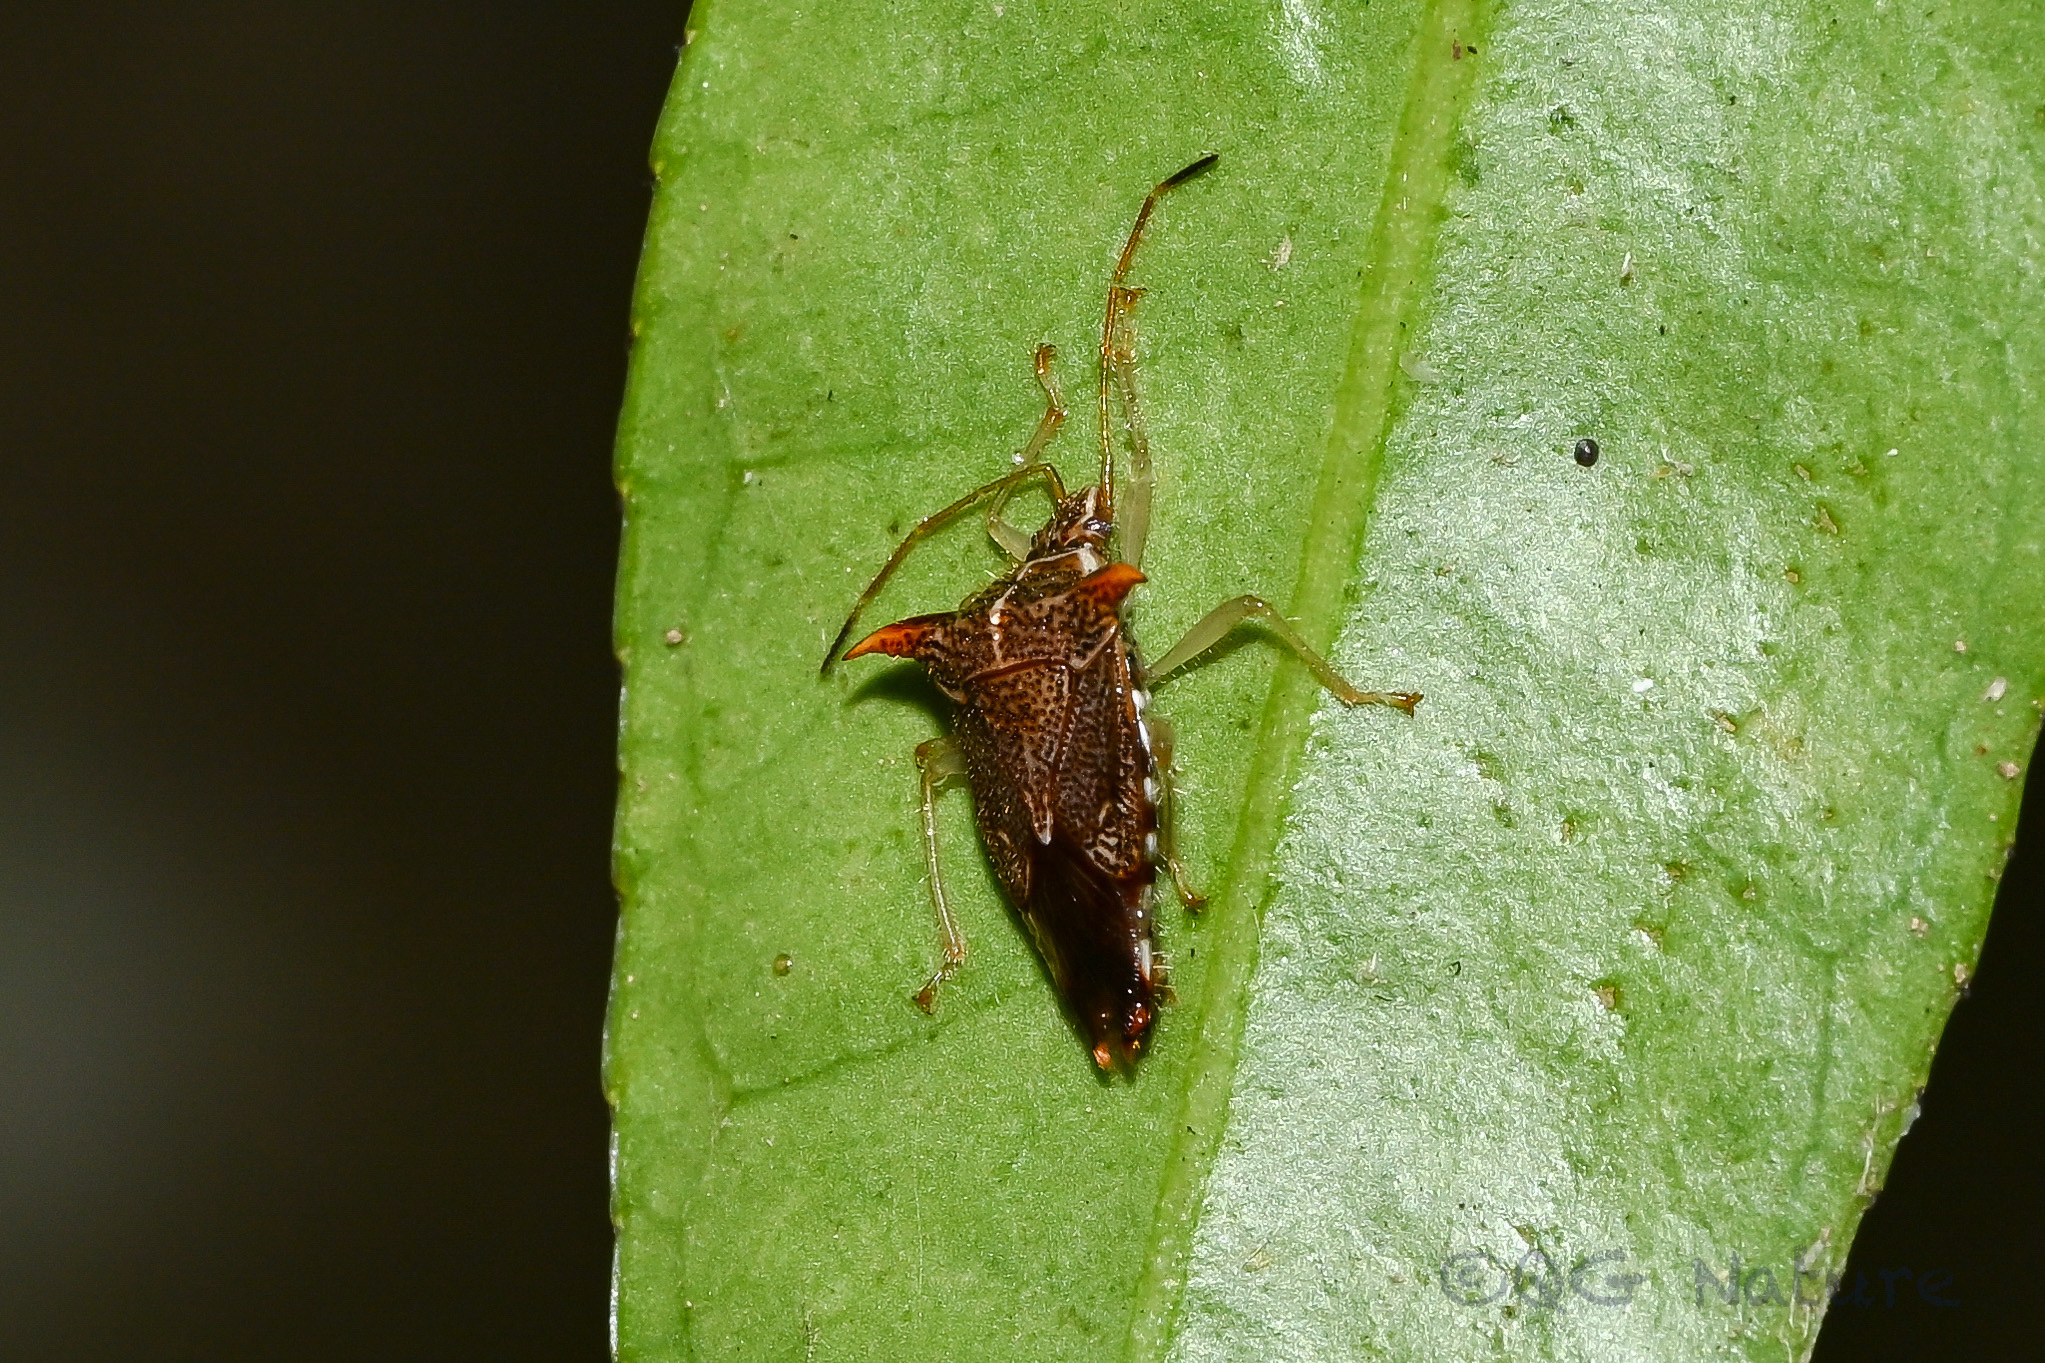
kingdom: Animalia
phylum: Arthropoda
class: Insecta
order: Hemiptera
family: Acanthosomatidae
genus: Elasmucha
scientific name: Elasmucha lineata
